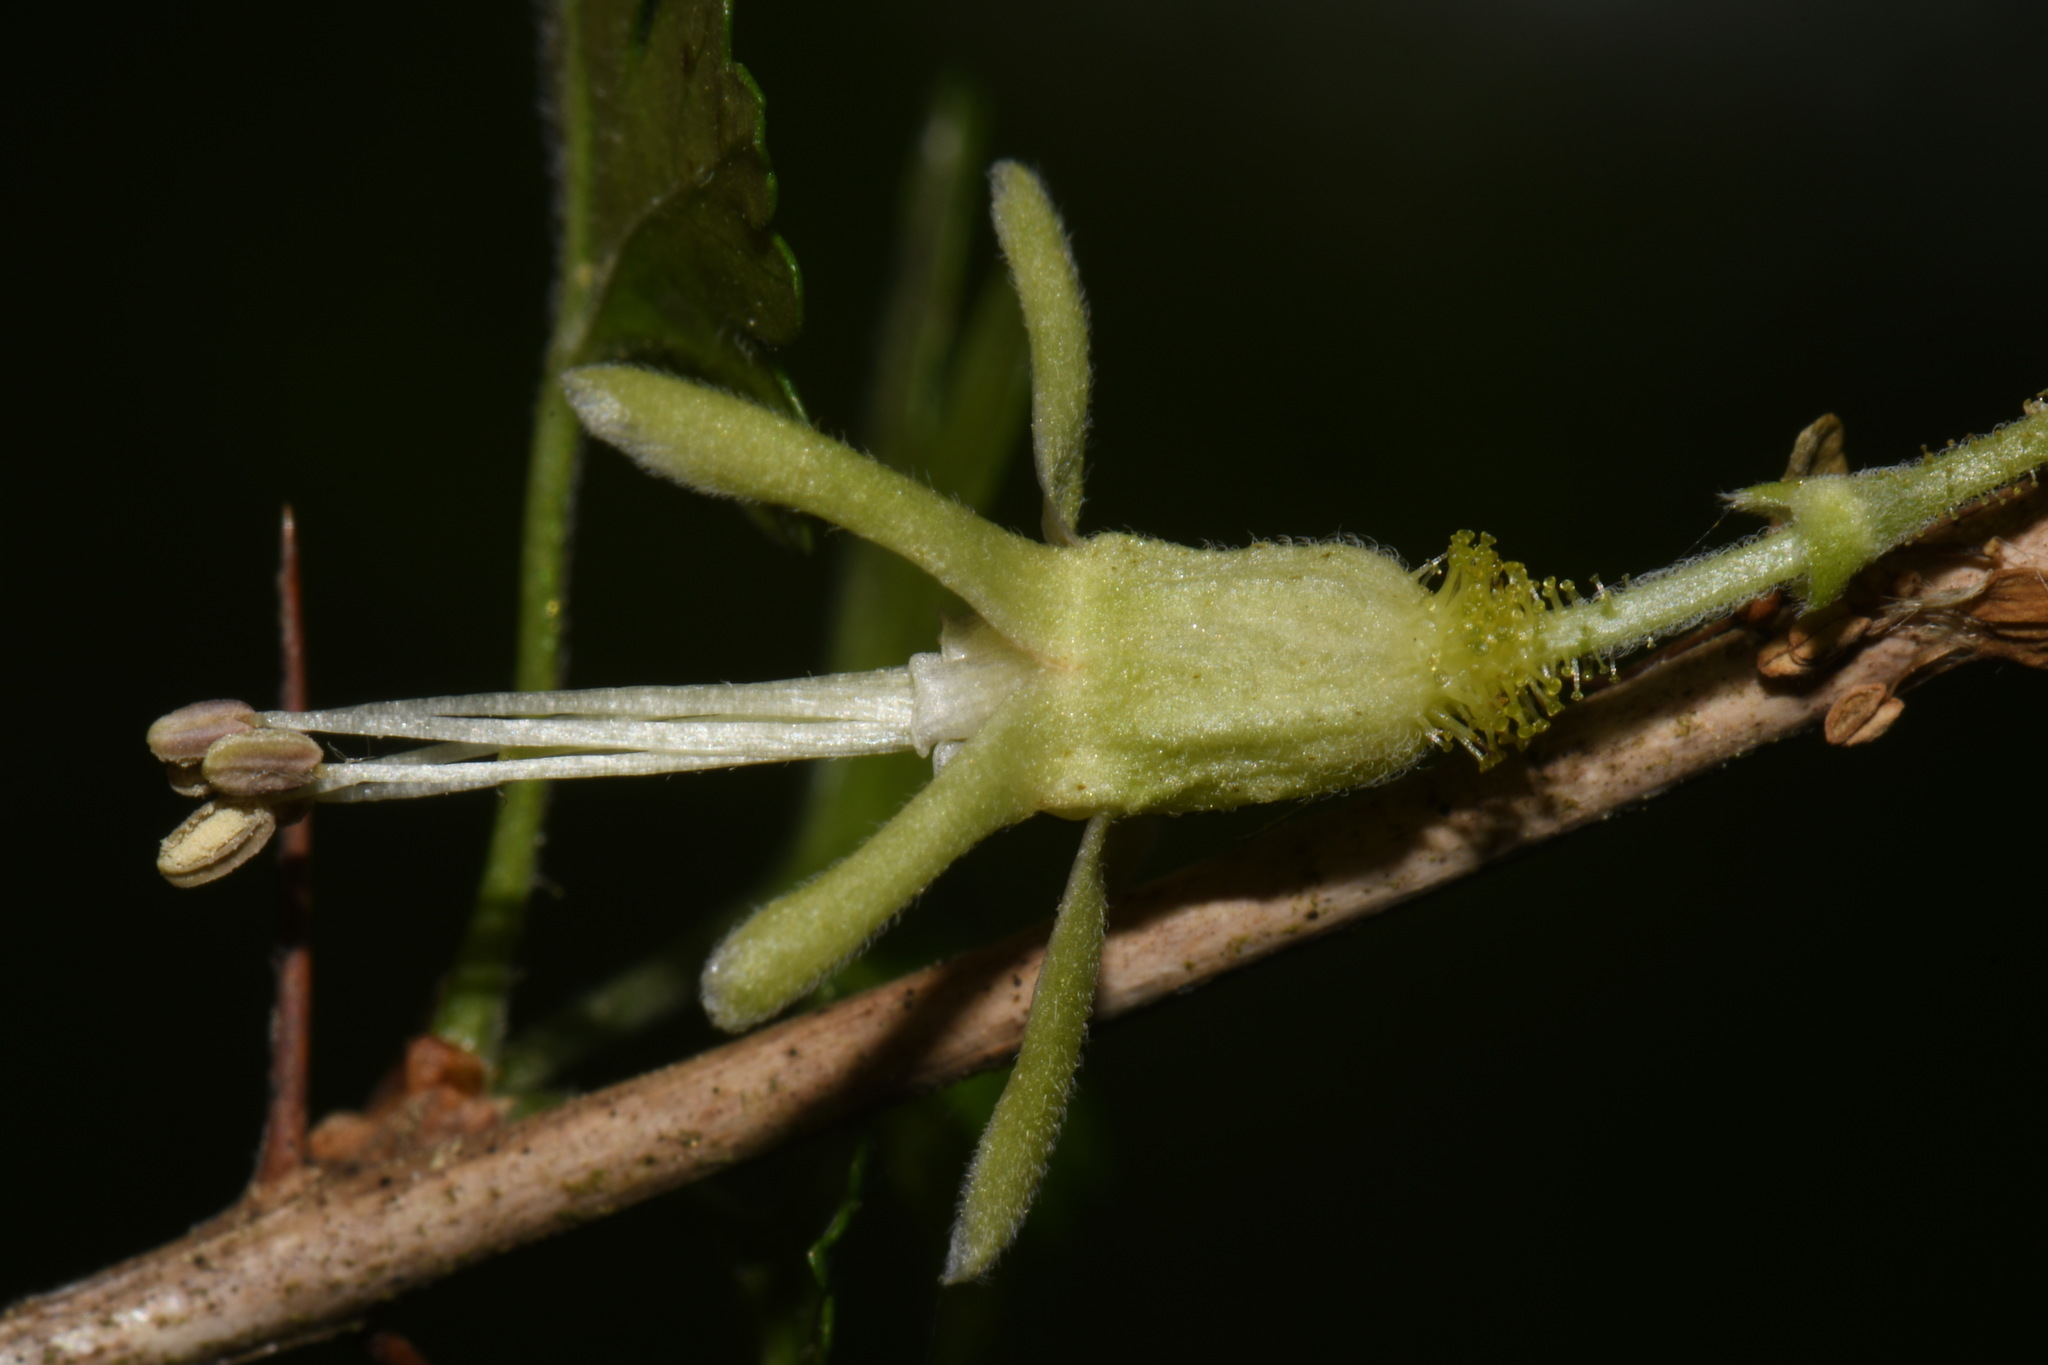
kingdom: Plantae
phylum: Tracheophyta
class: Magnoliopsida
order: Saxifragales
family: Grossulariaceae
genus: Ribes
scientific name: Ribes echinellum
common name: Miccosukee gooseberry
